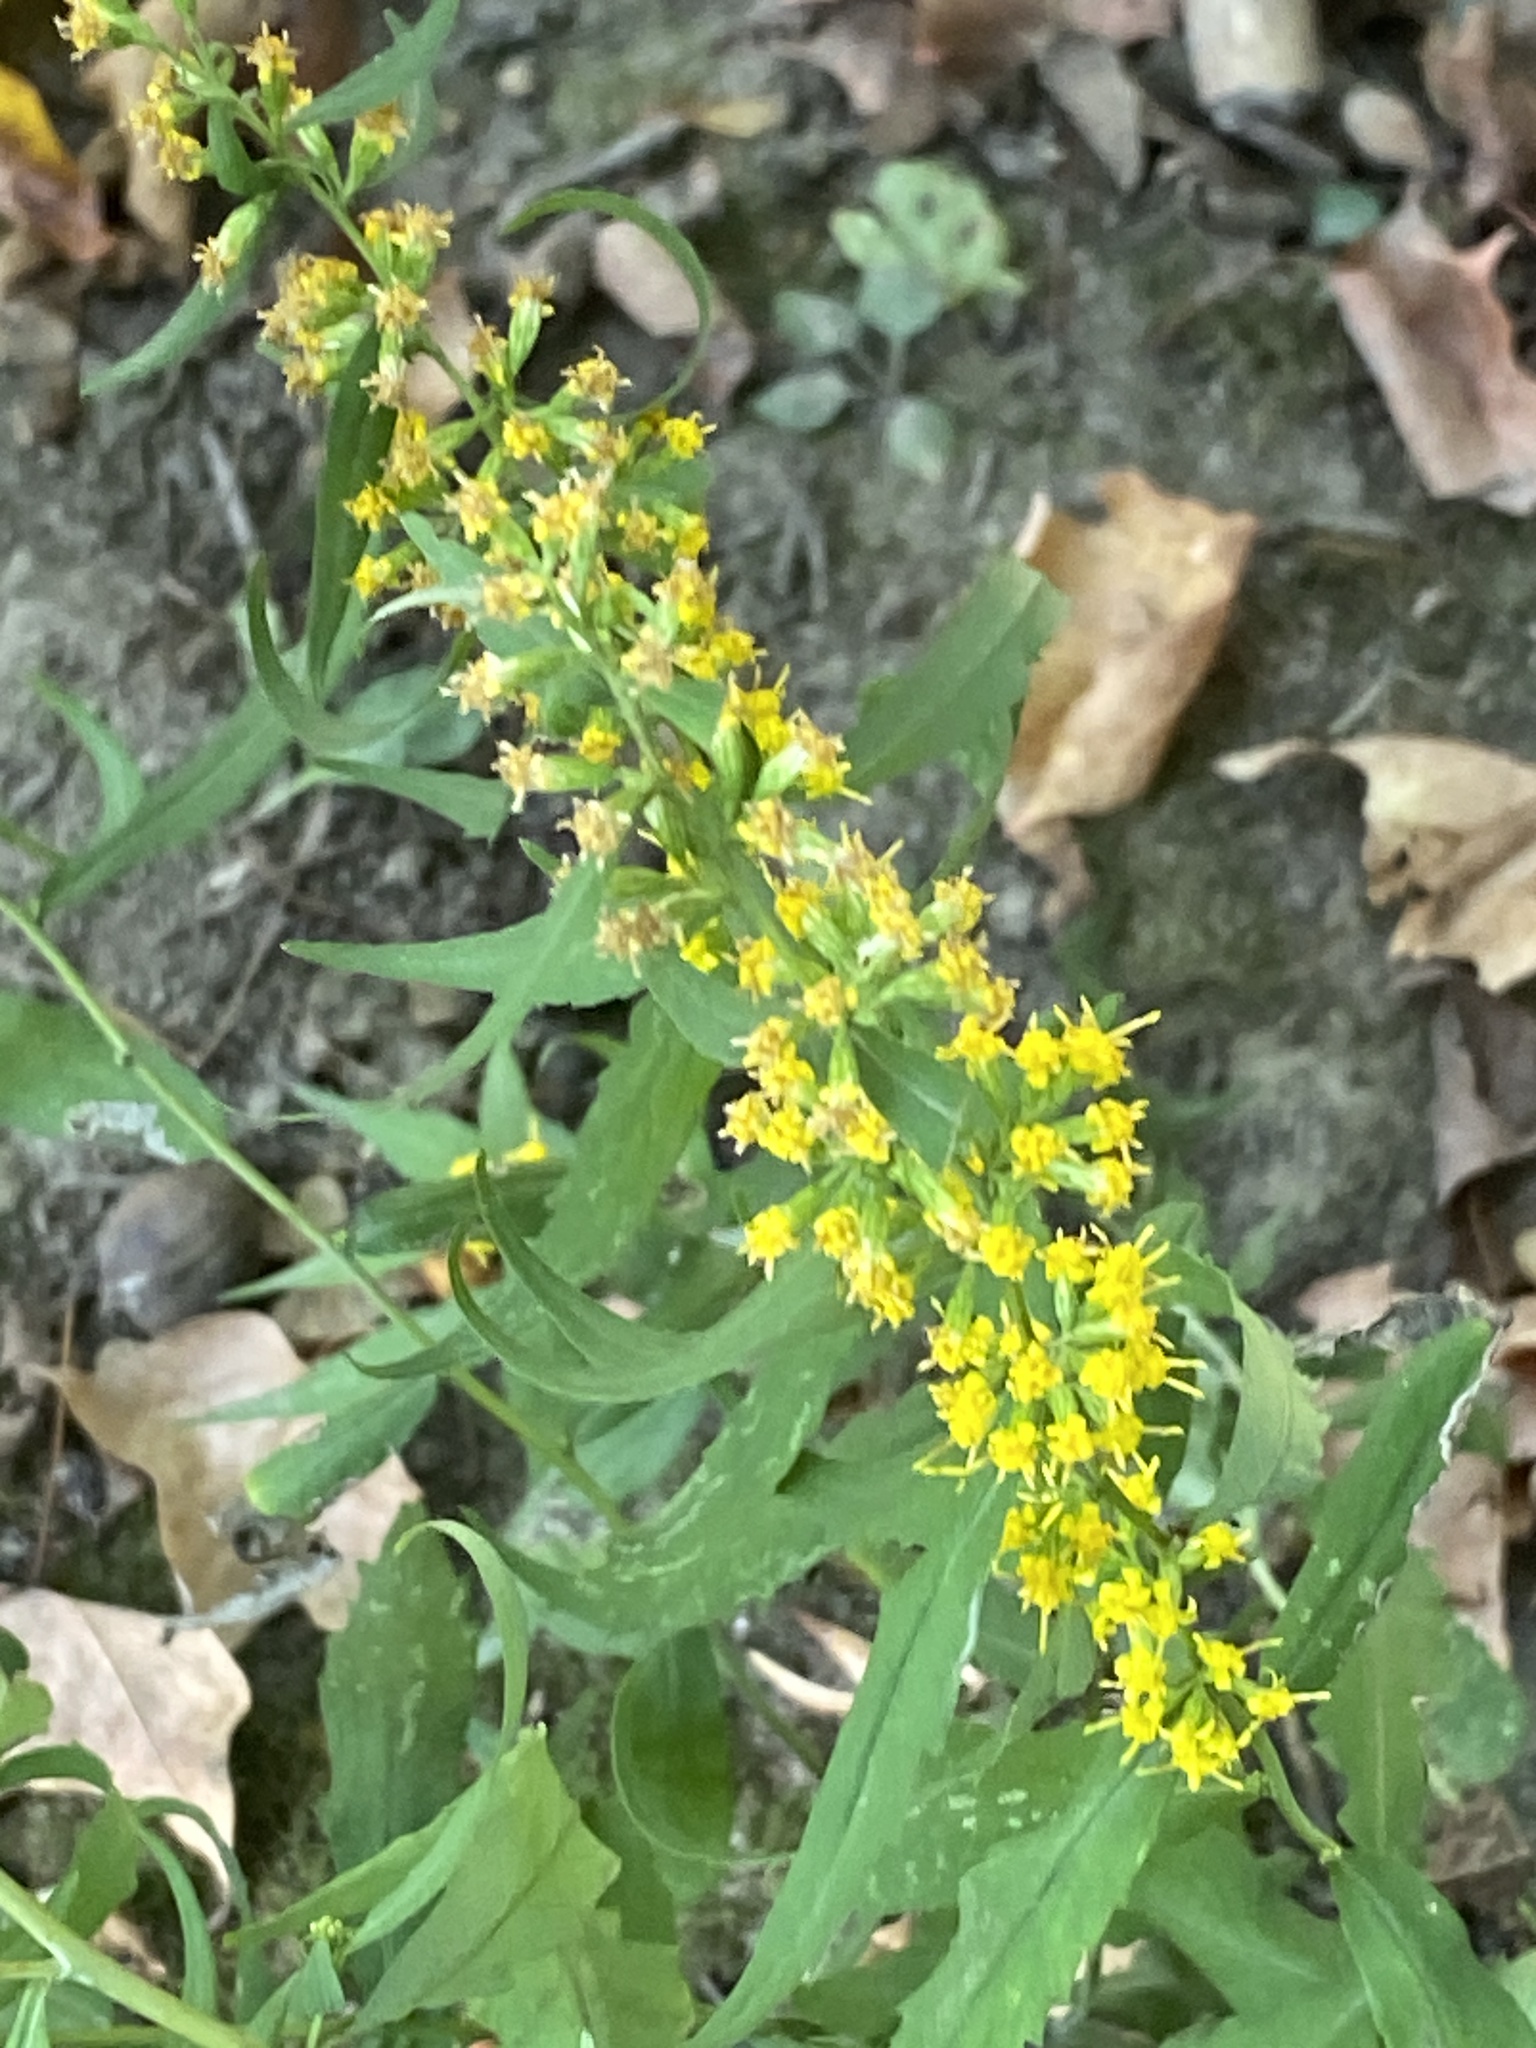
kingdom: Plantae
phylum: Tracheophyta
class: Magnoliopsida
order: Asterales
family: Asteraceae
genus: Solidago
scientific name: Solidago caesia
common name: Woodland goldenrod
